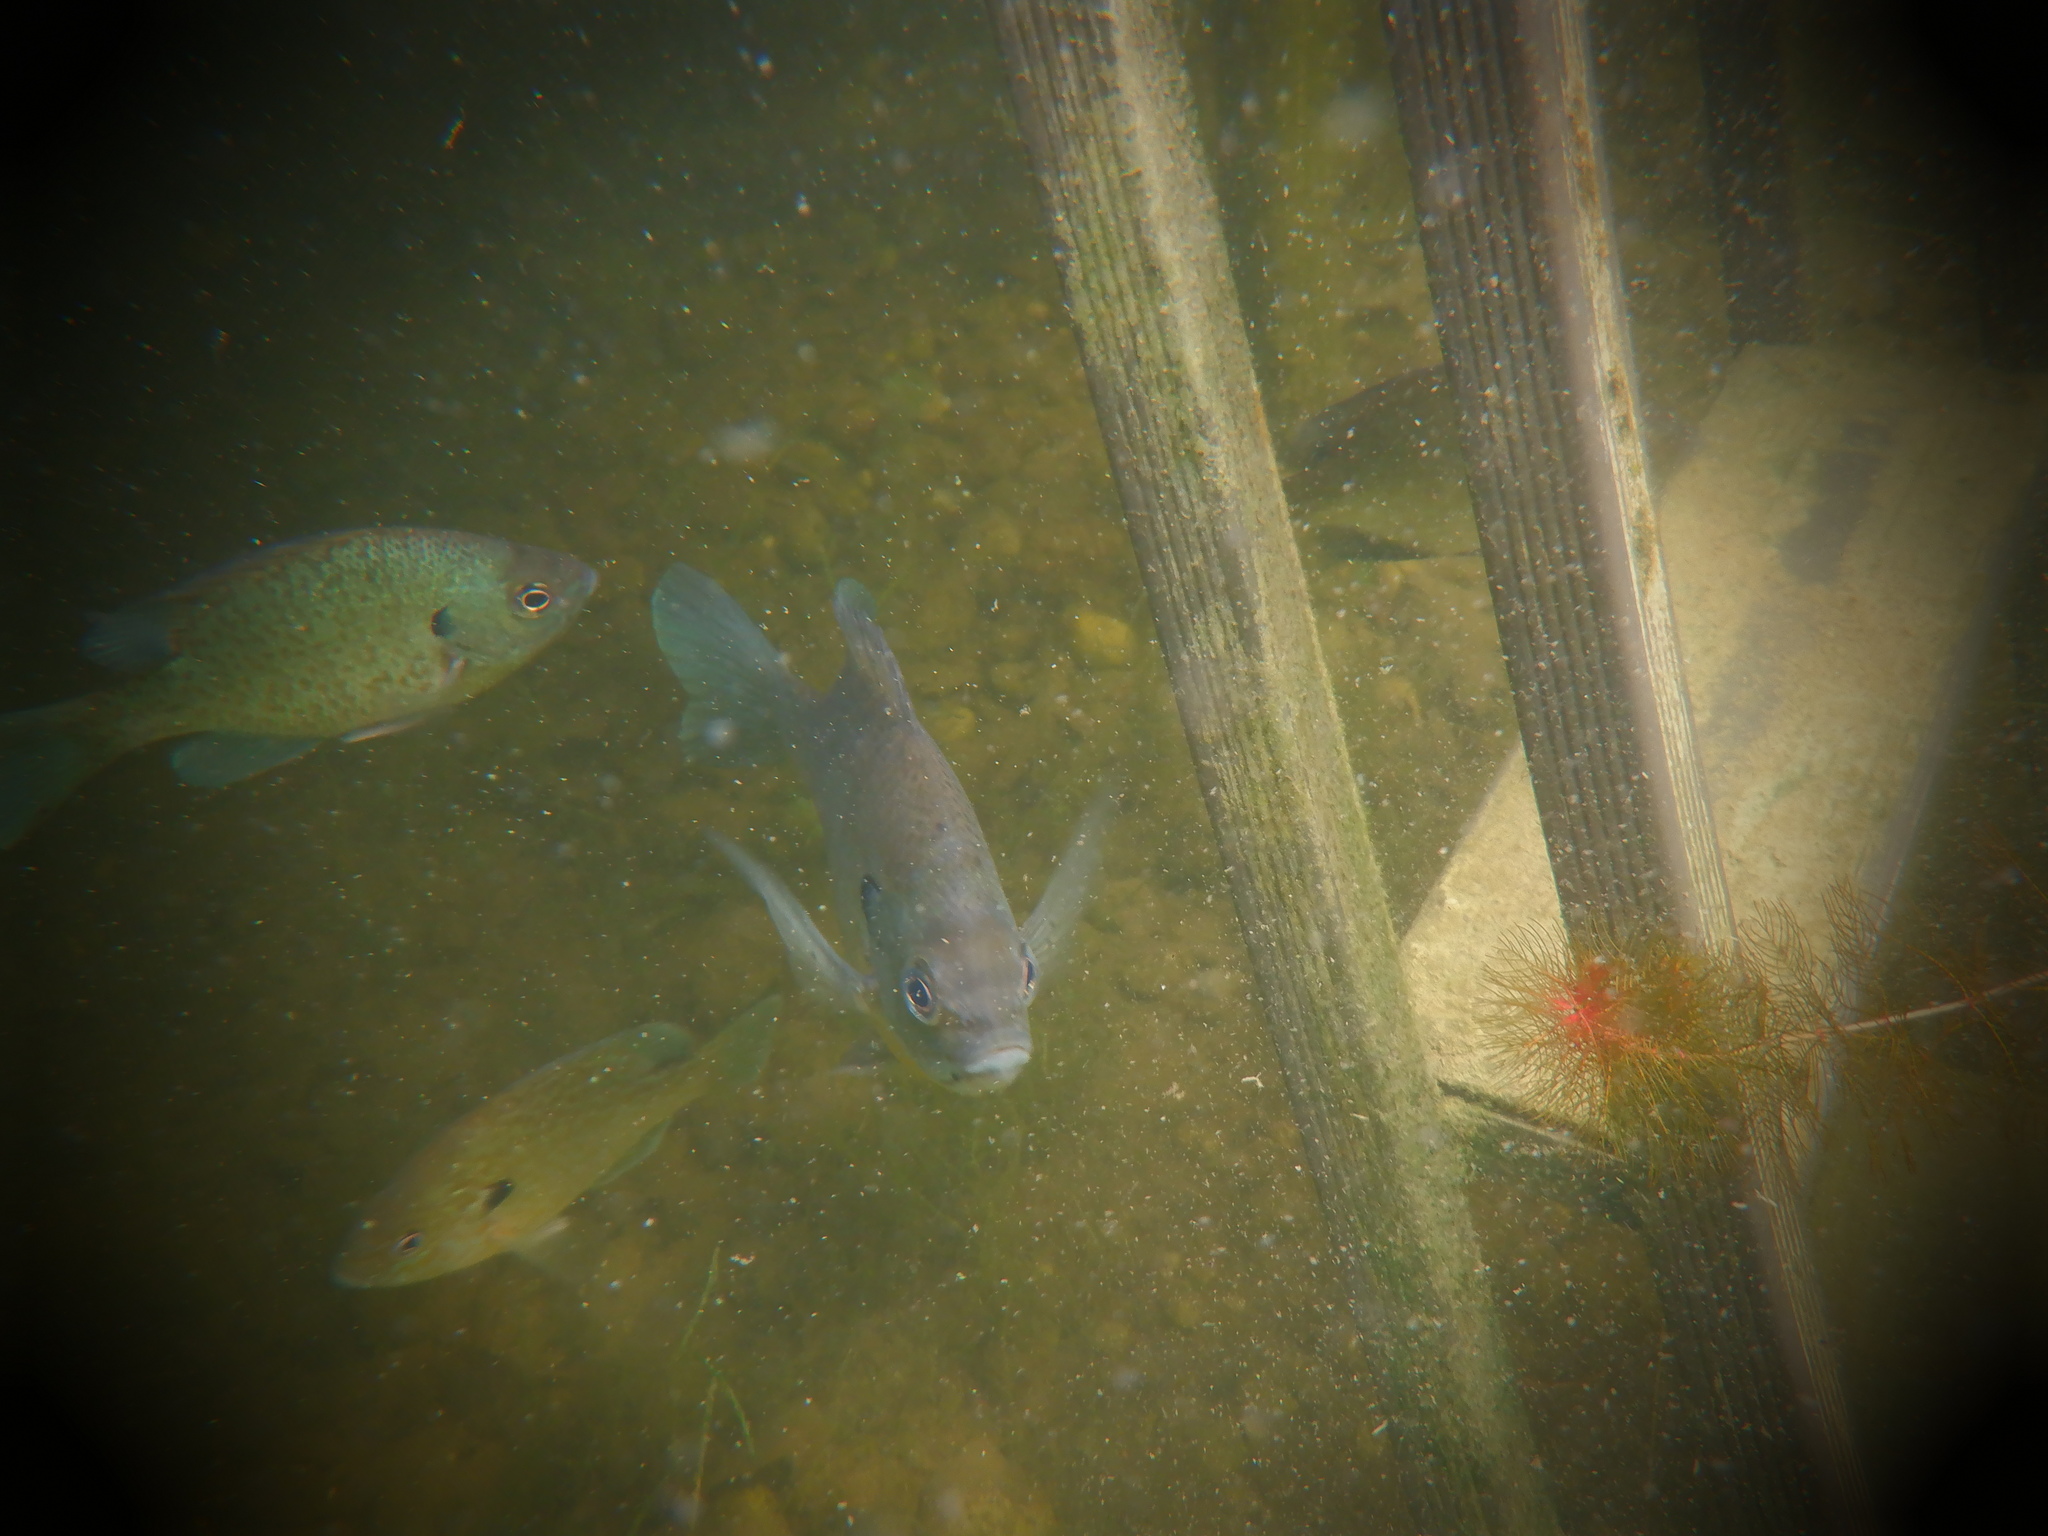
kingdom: Animalia
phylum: Chordata
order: Perciformes
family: Centrarchidae
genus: Lepomis
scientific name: Lepomis macrochirus
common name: Bluegill
